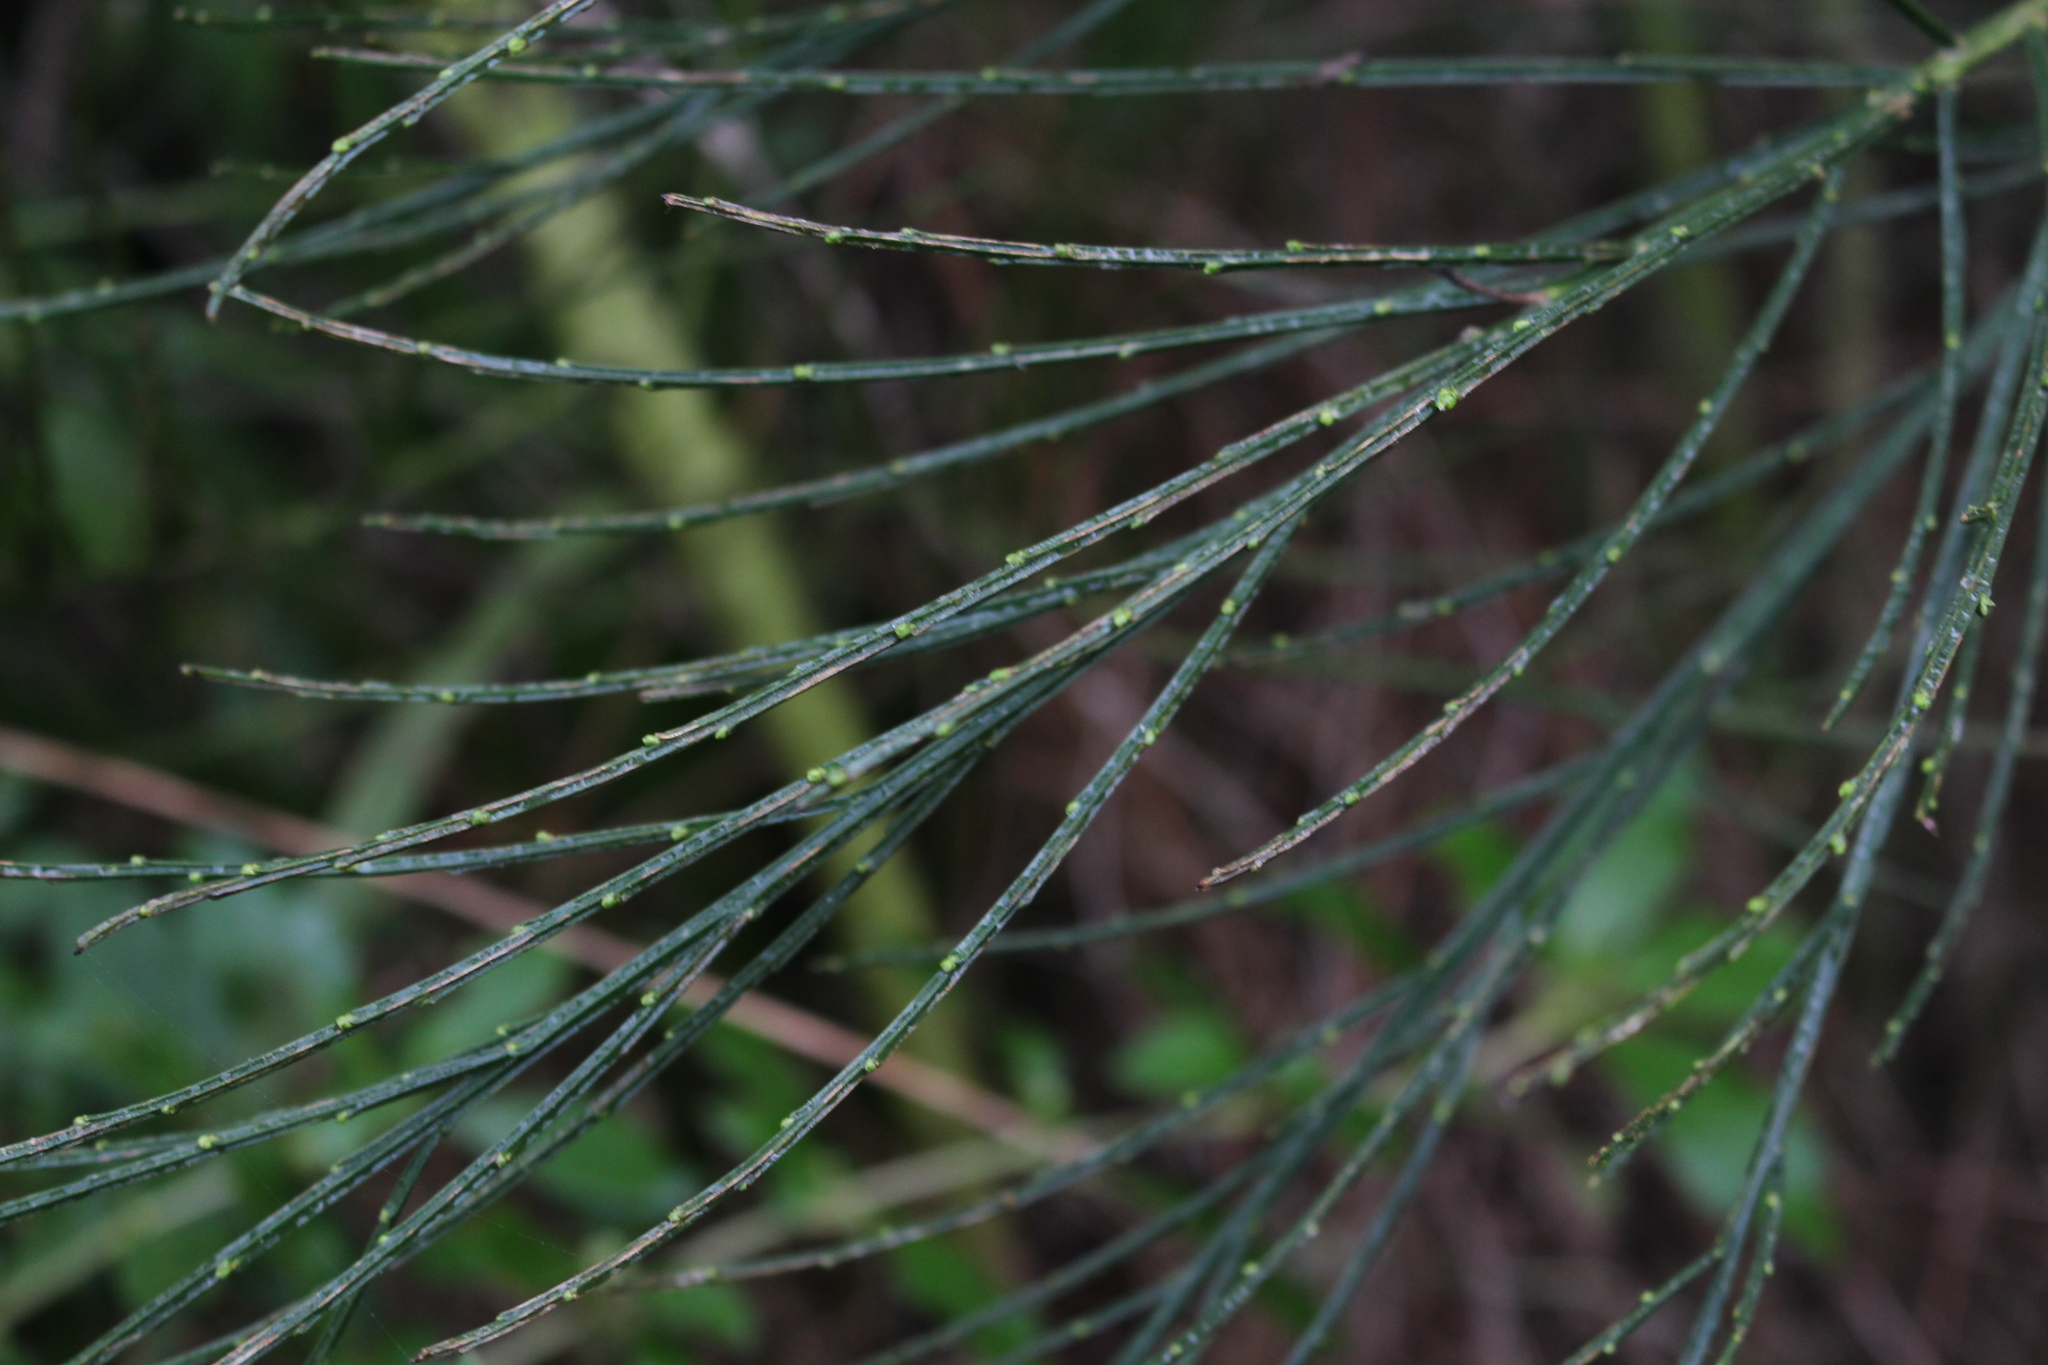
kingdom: Plantae
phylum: Tracheophyta
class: Magnoliopsida
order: Fabales
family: Fabaceae
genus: Cytisus
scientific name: Cytisus scoparius
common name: Scotch broom
